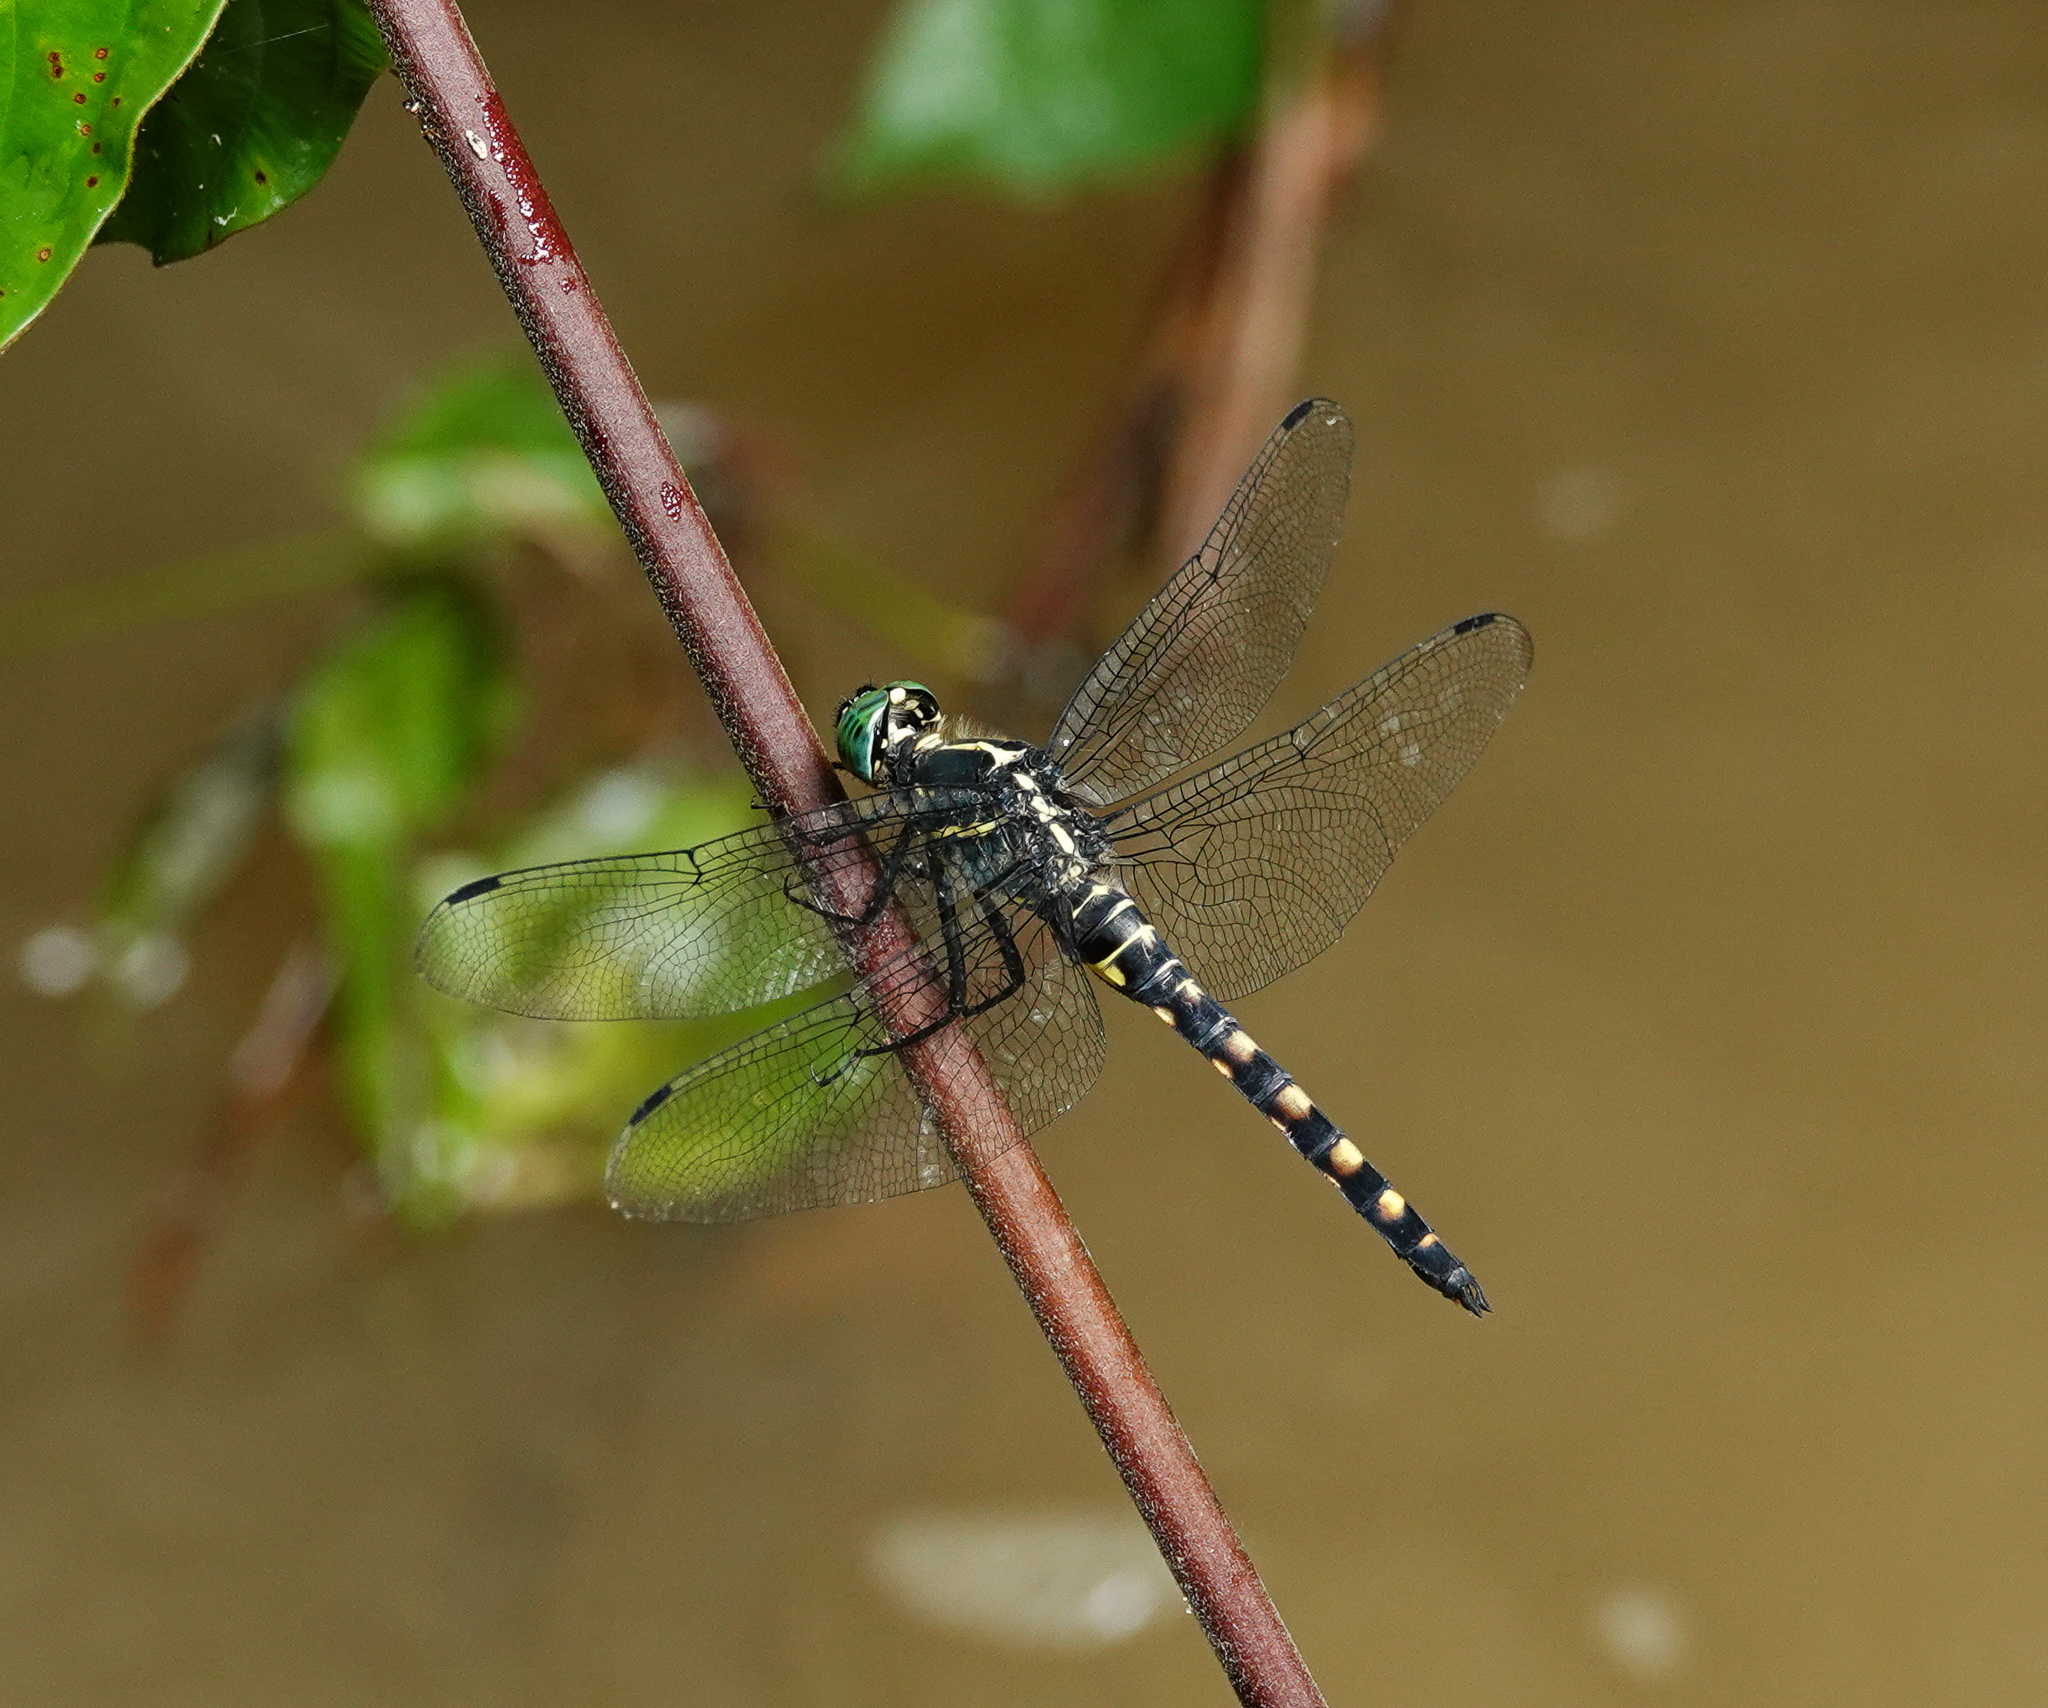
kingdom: Animalia
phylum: Arthropoda
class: Insecta
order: Odonata
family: Libellulidae
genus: Onychothemis
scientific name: Onychothemis testacea
